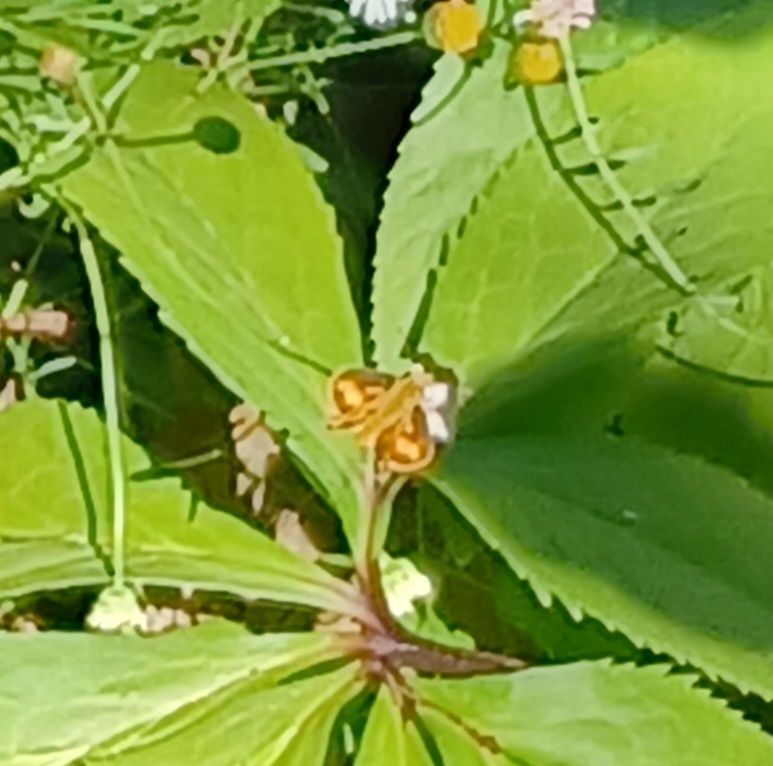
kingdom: Animalia
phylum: Arthropoda
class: Insecta
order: Lepidoptera
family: Hesperiidae
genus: Ocybadistes
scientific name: Ocybadistes walkeri
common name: Yellow-banded dart
